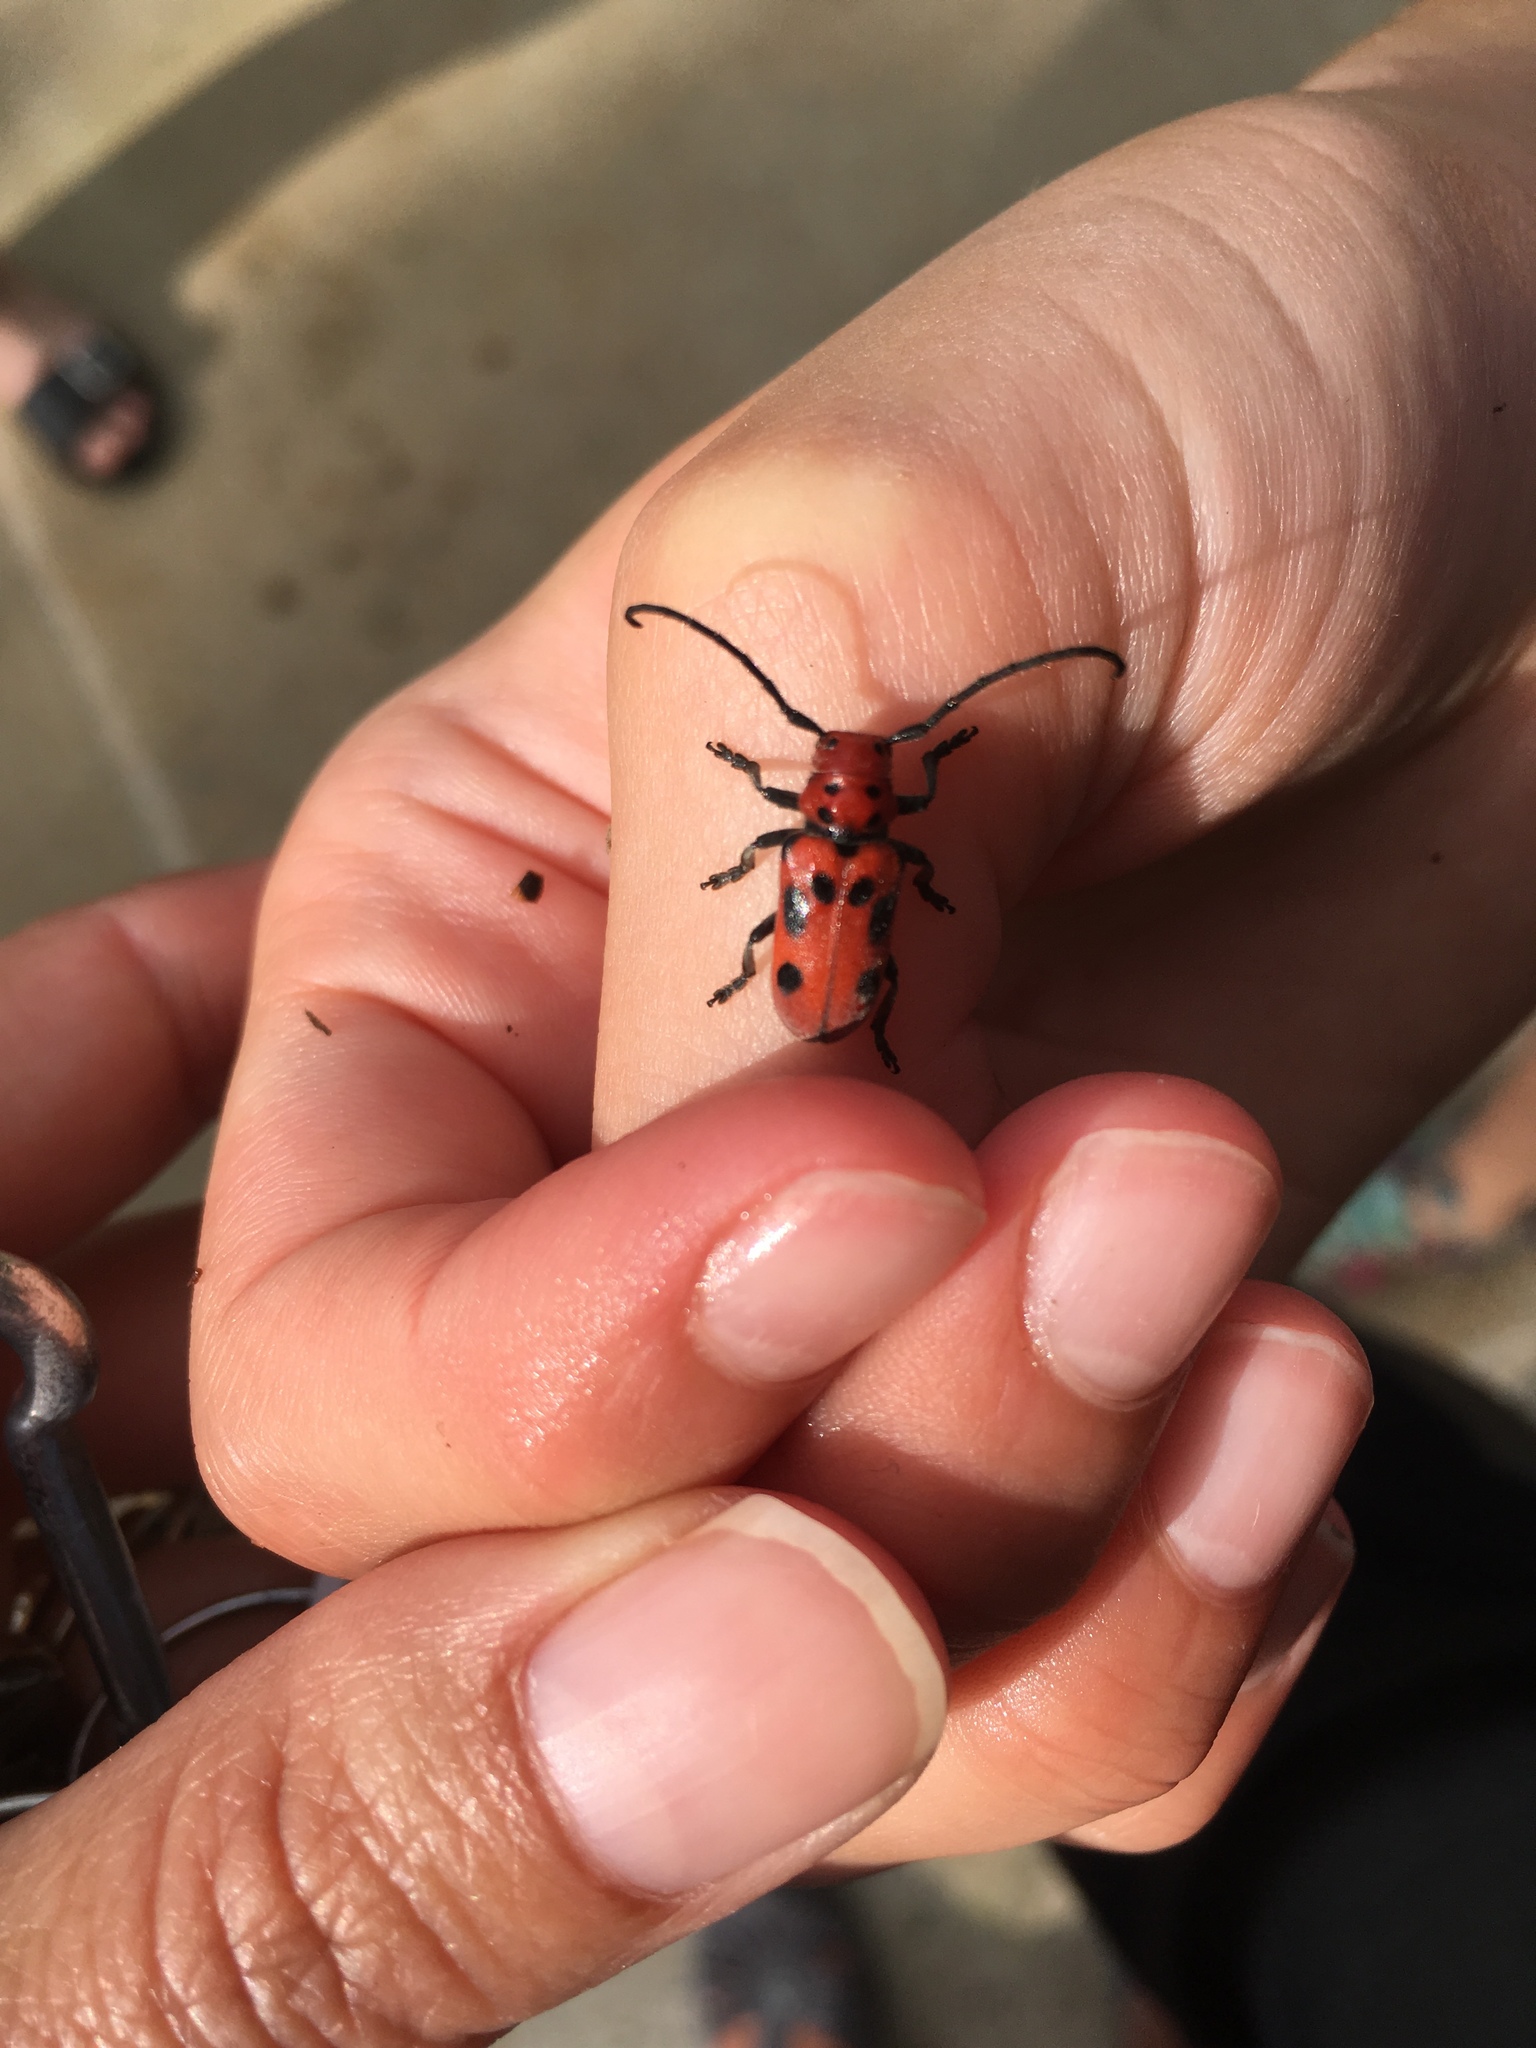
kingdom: Animalia
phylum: Arthropoda
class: Insecta
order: Coleoptera
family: Cerambycidae
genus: Tetraopes
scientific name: Tetraopes tetrophthalmus
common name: Red milkweed beetle
